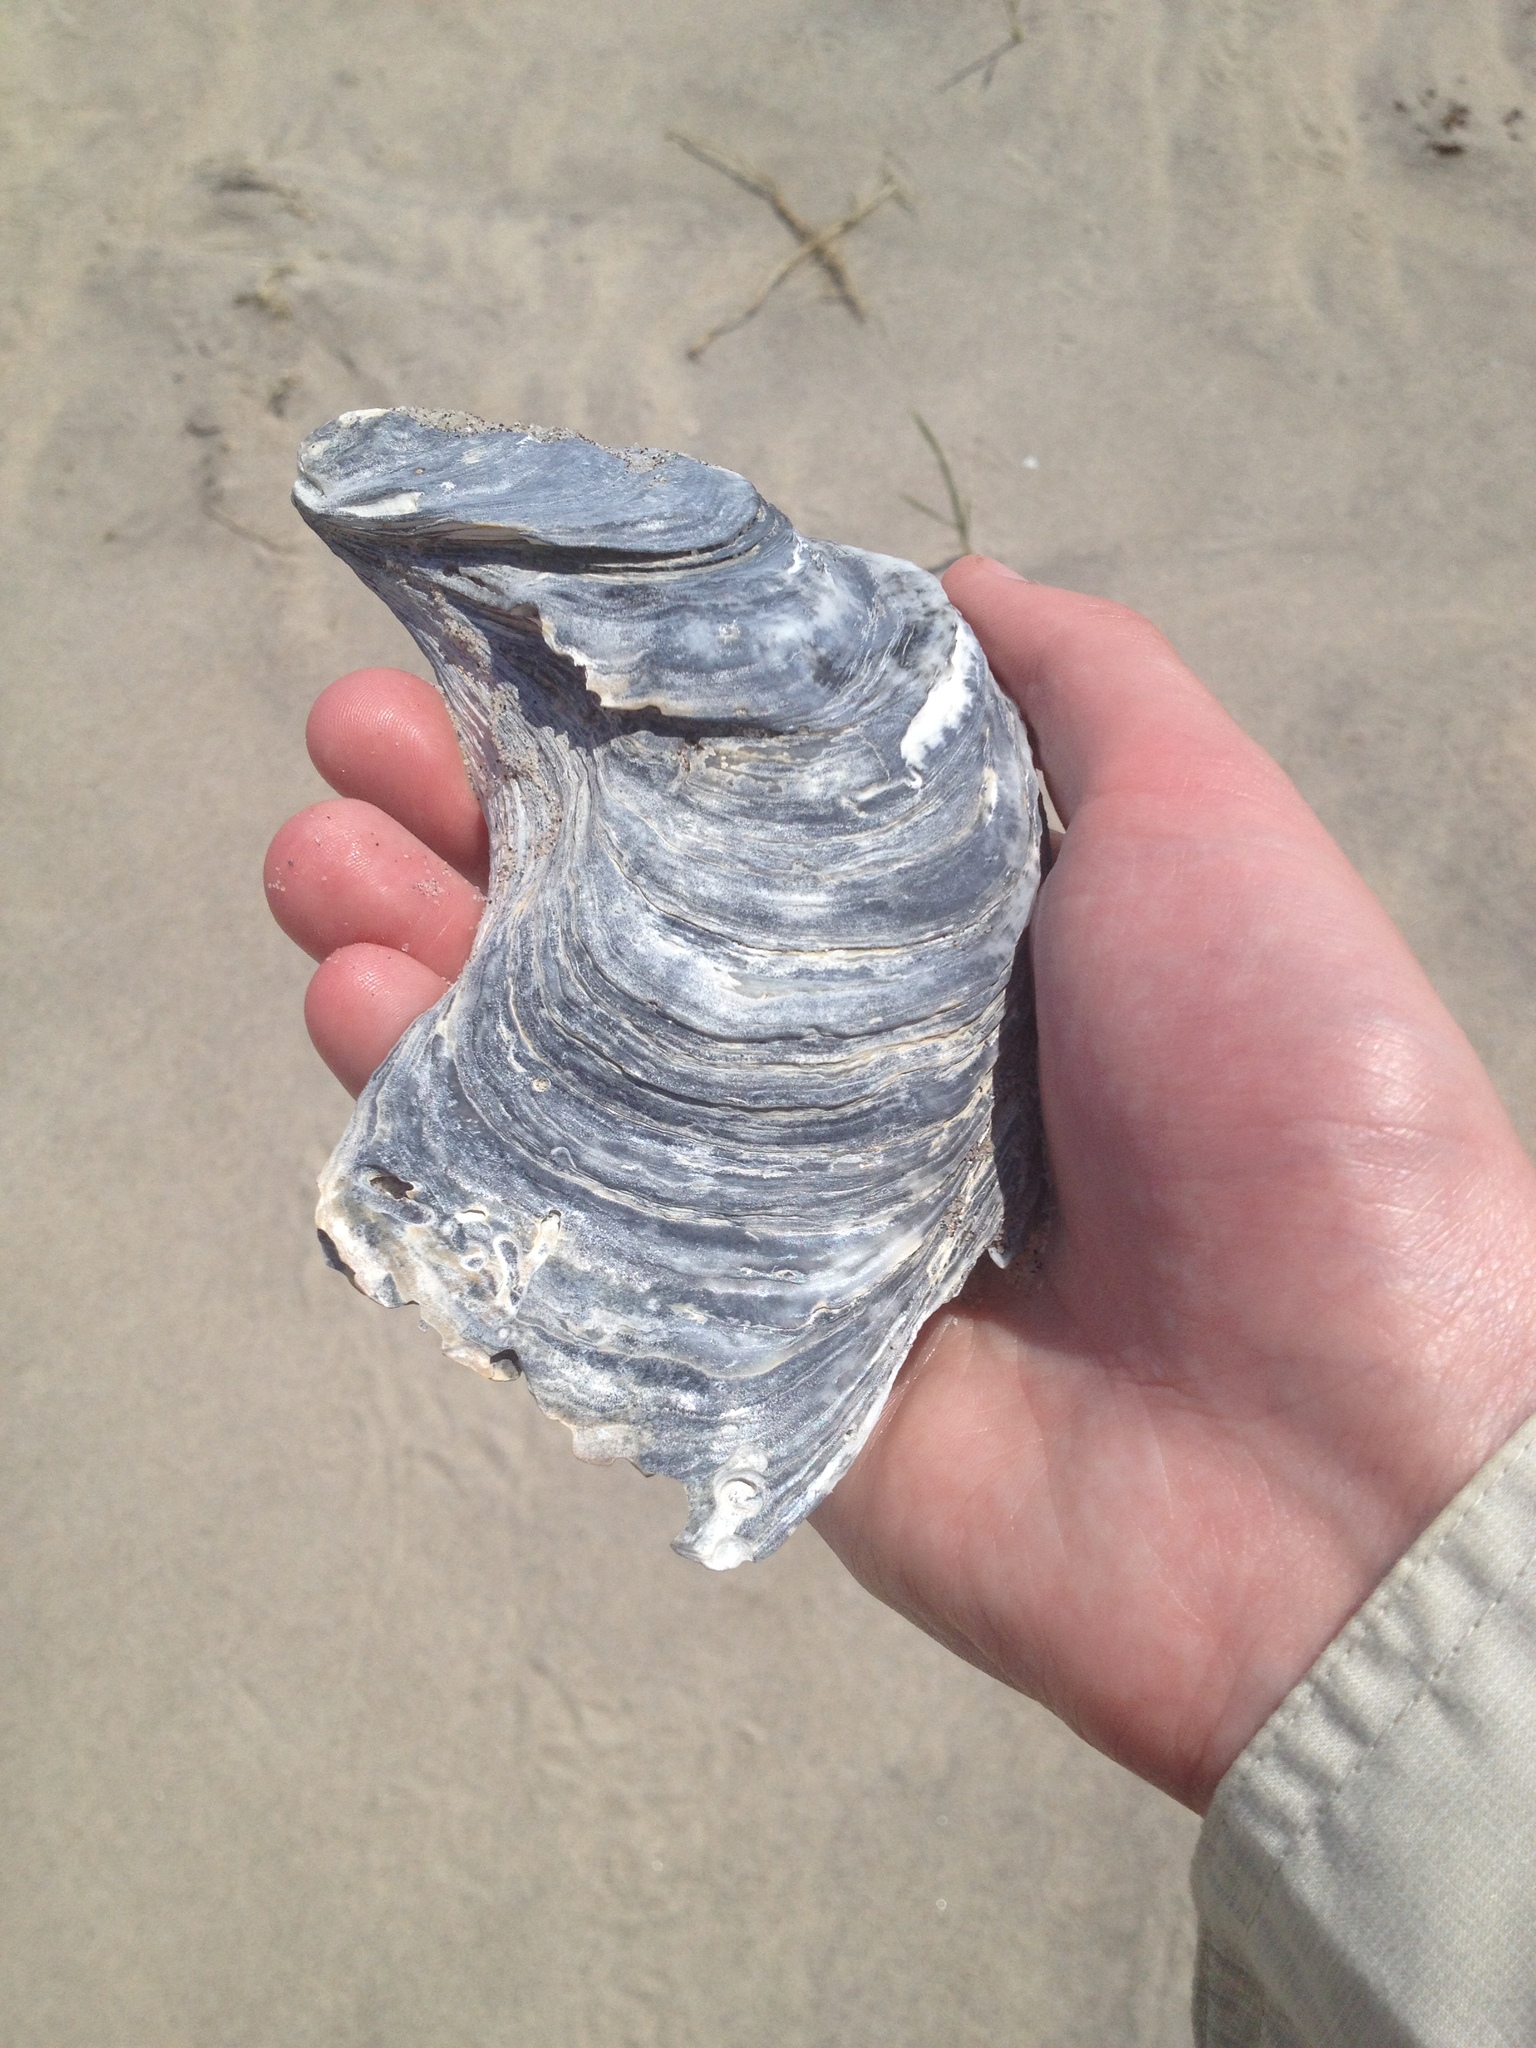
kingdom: Animalia
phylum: Mollusca
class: Bivalvia
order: Ostreida
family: Ostreidae
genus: Crassostrea
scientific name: Crassostrea virginica
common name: American oyster
